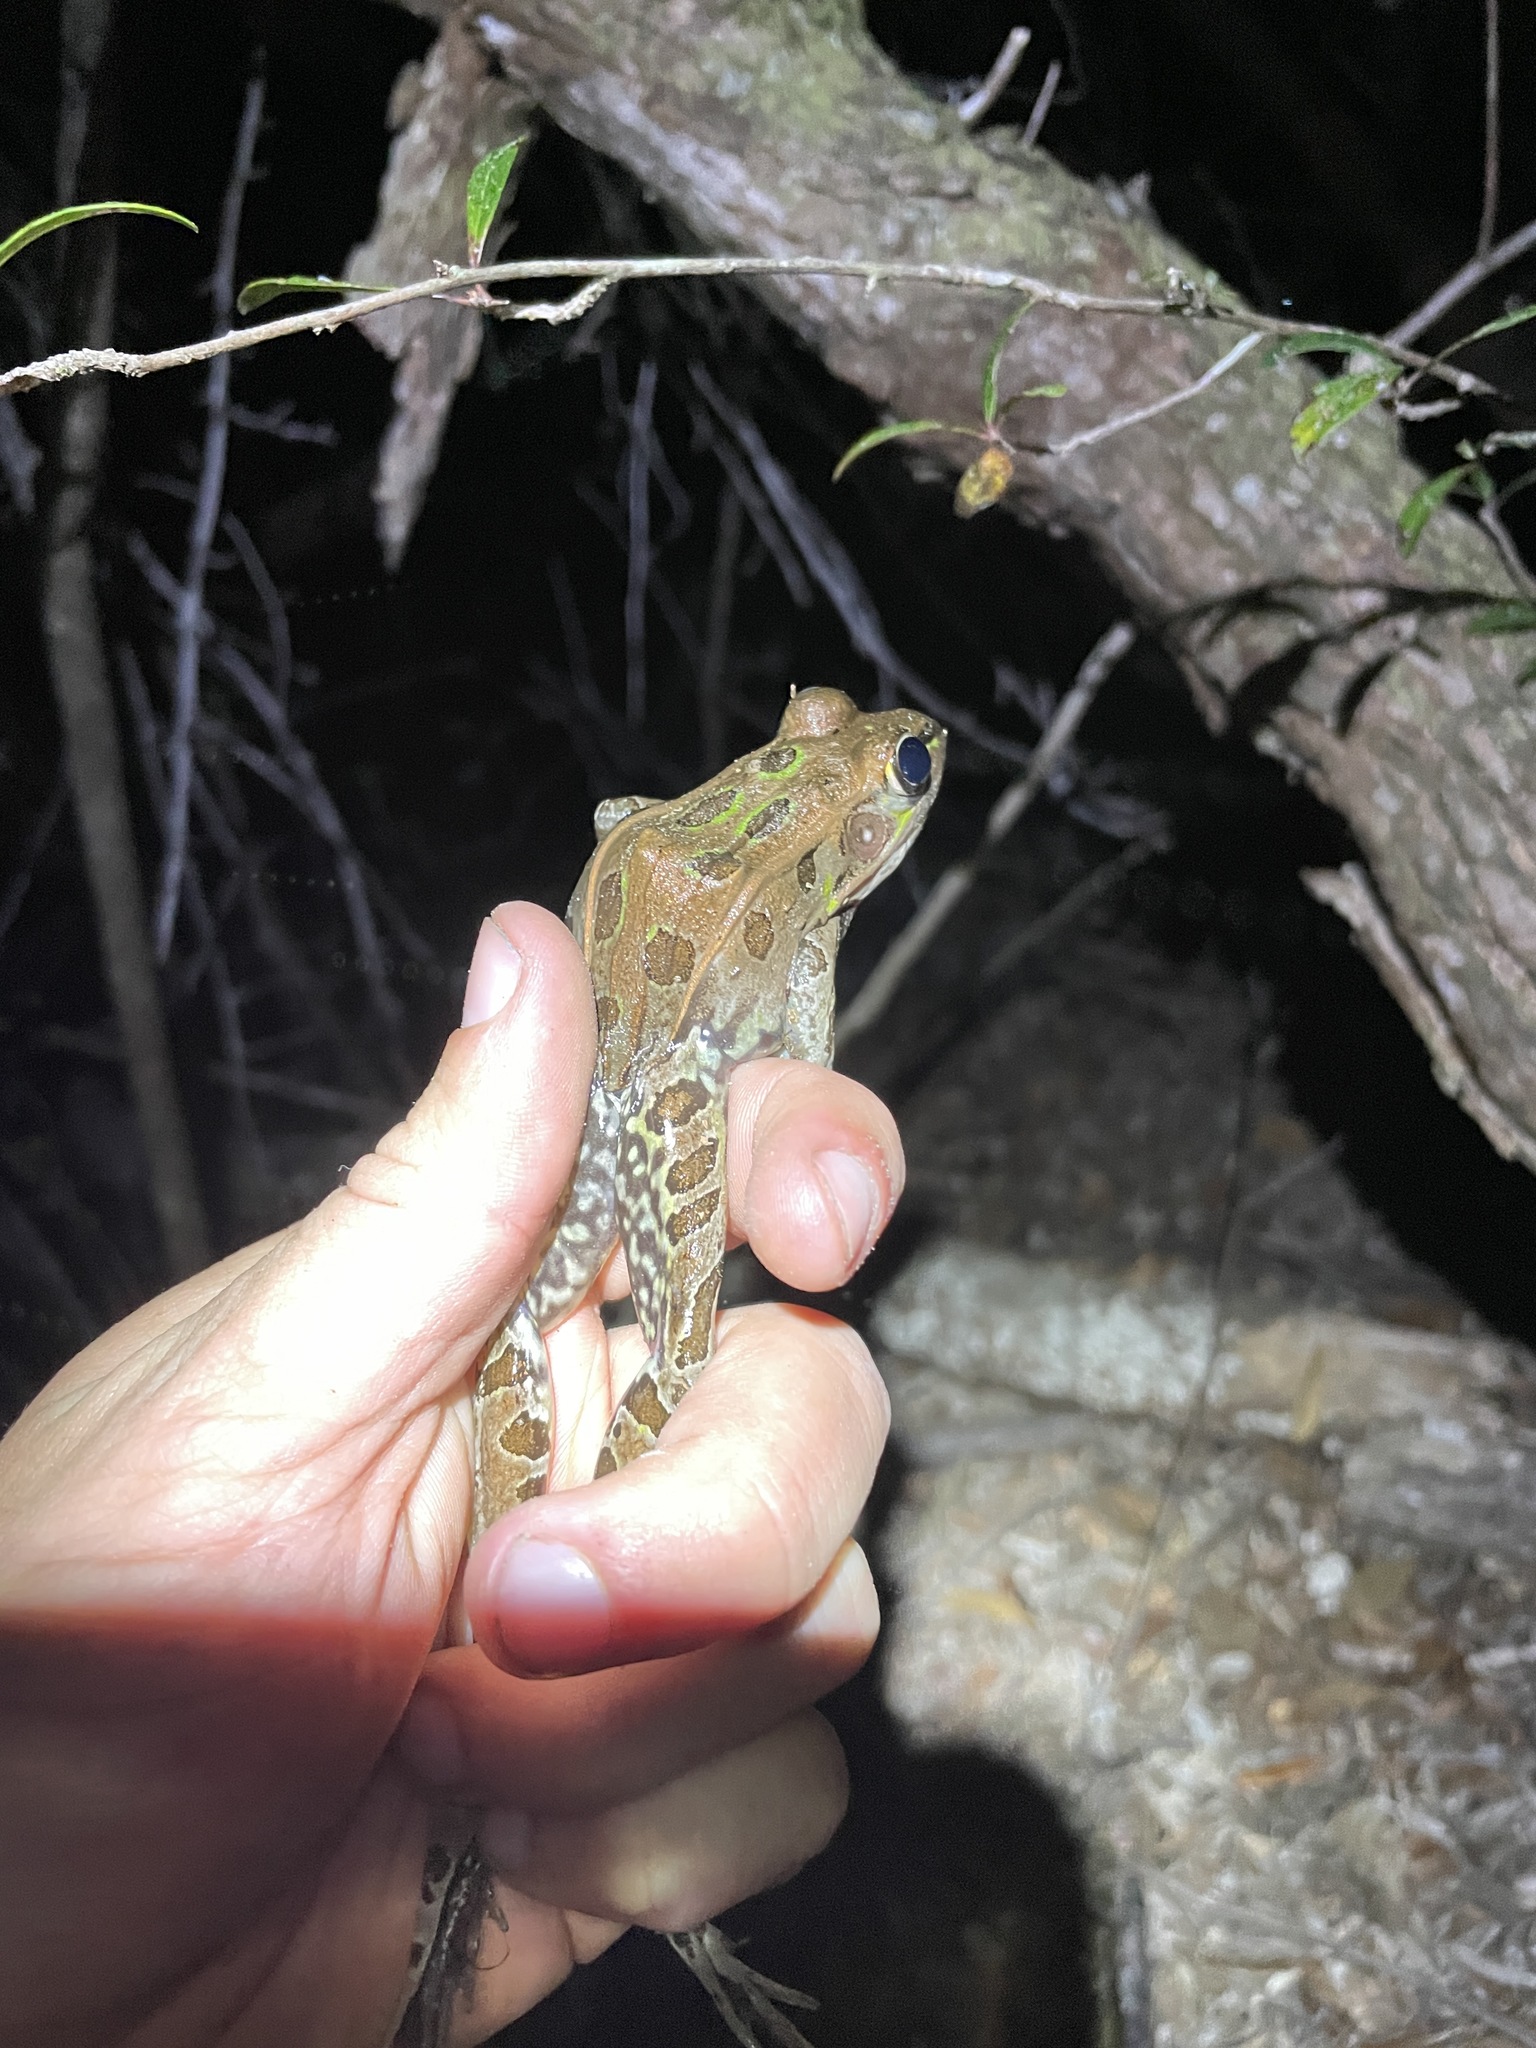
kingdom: Animalia
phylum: Chordata
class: Amphibia
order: Anura
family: Ranidae
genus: Lithobates
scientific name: Lithobates sphenocephalus
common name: Southern leopard frog
